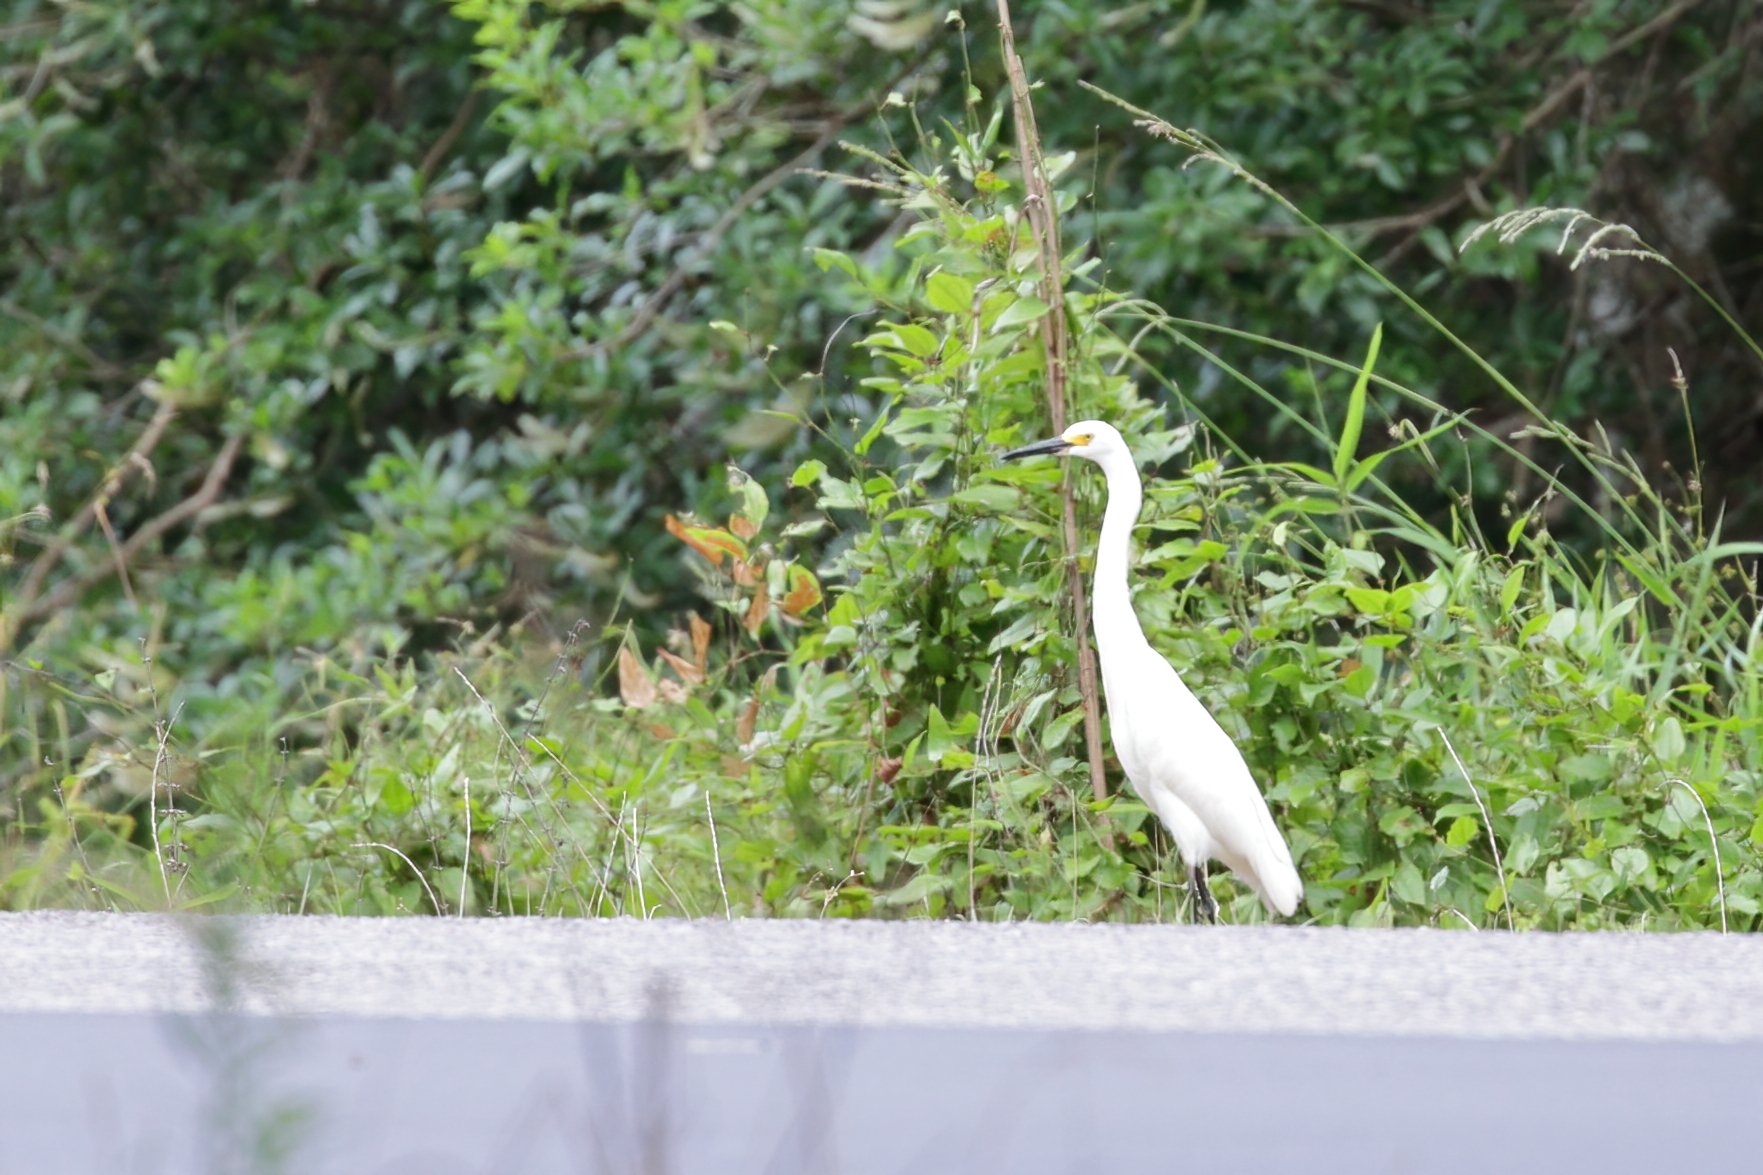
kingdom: Animalia
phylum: Chordata
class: Aves
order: Pelecaniformes
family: Ardeidae
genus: Egretta
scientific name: Egretta thula
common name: Snowy egret
